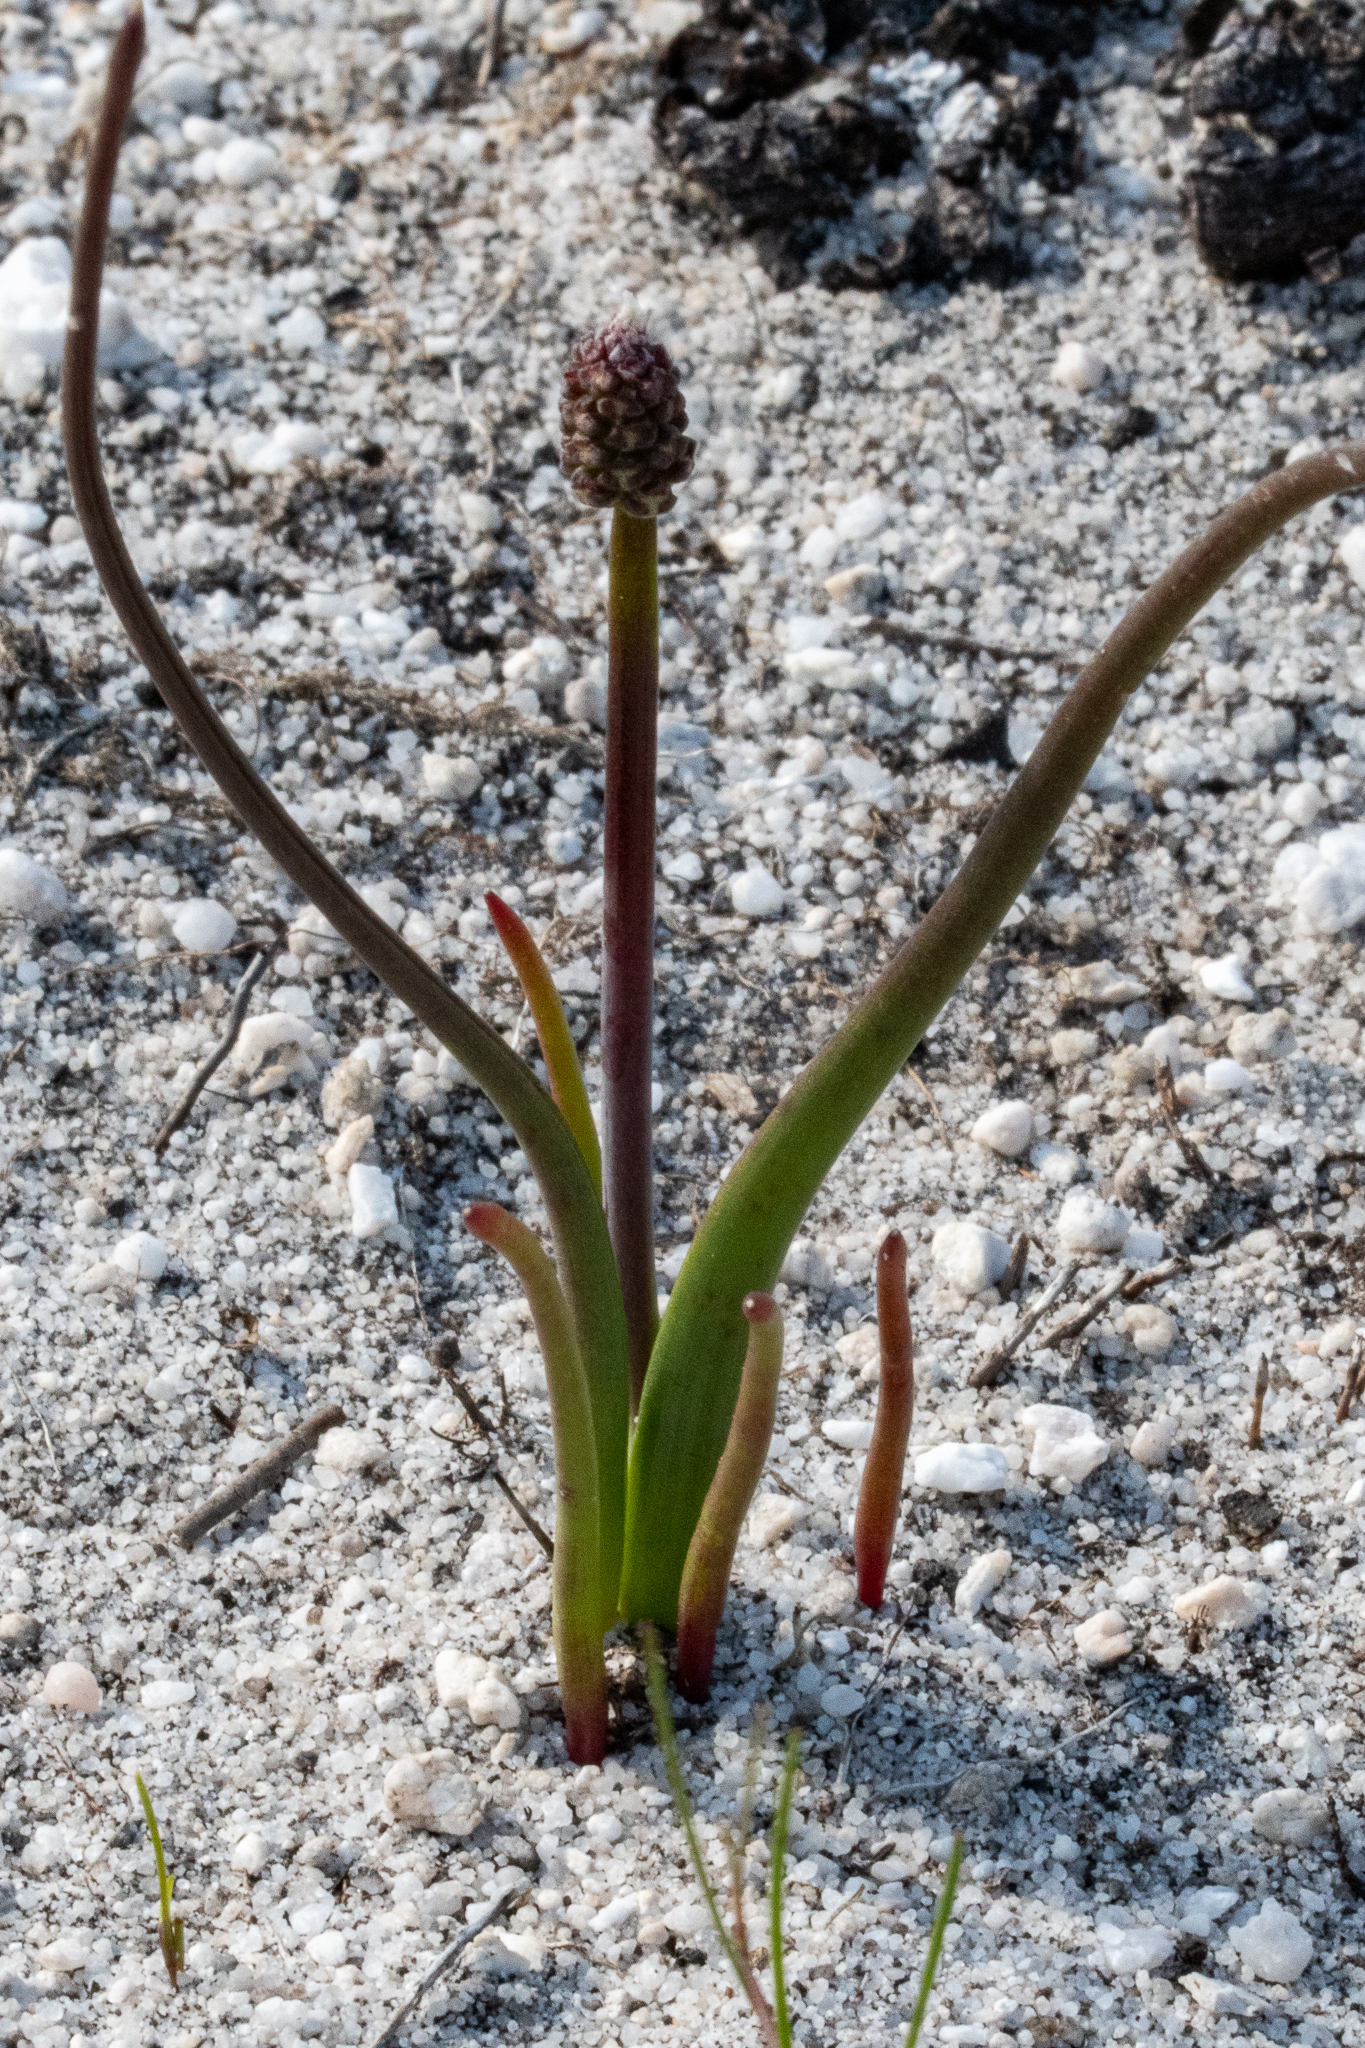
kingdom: Plantae
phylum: Tracheophyta
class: Liliopsida
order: Asparagales
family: Asparagaceae
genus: Lachenalia
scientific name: Lachenalia montana
